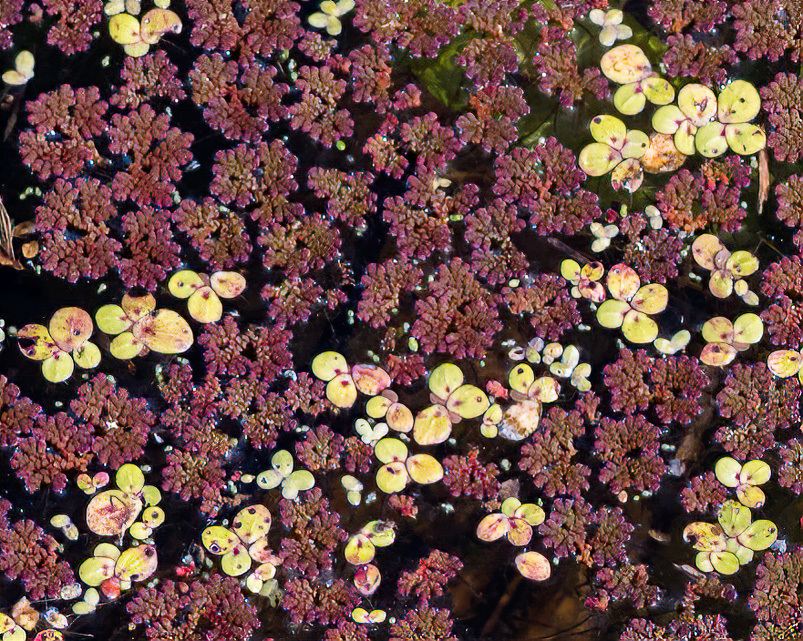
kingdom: Plantae
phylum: Tracheophyta
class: Polypodiopsida
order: Salviniales
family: Salviniaceae
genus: Azolla
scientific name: Azolla caroliniana
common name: Carolina mosquitofern
